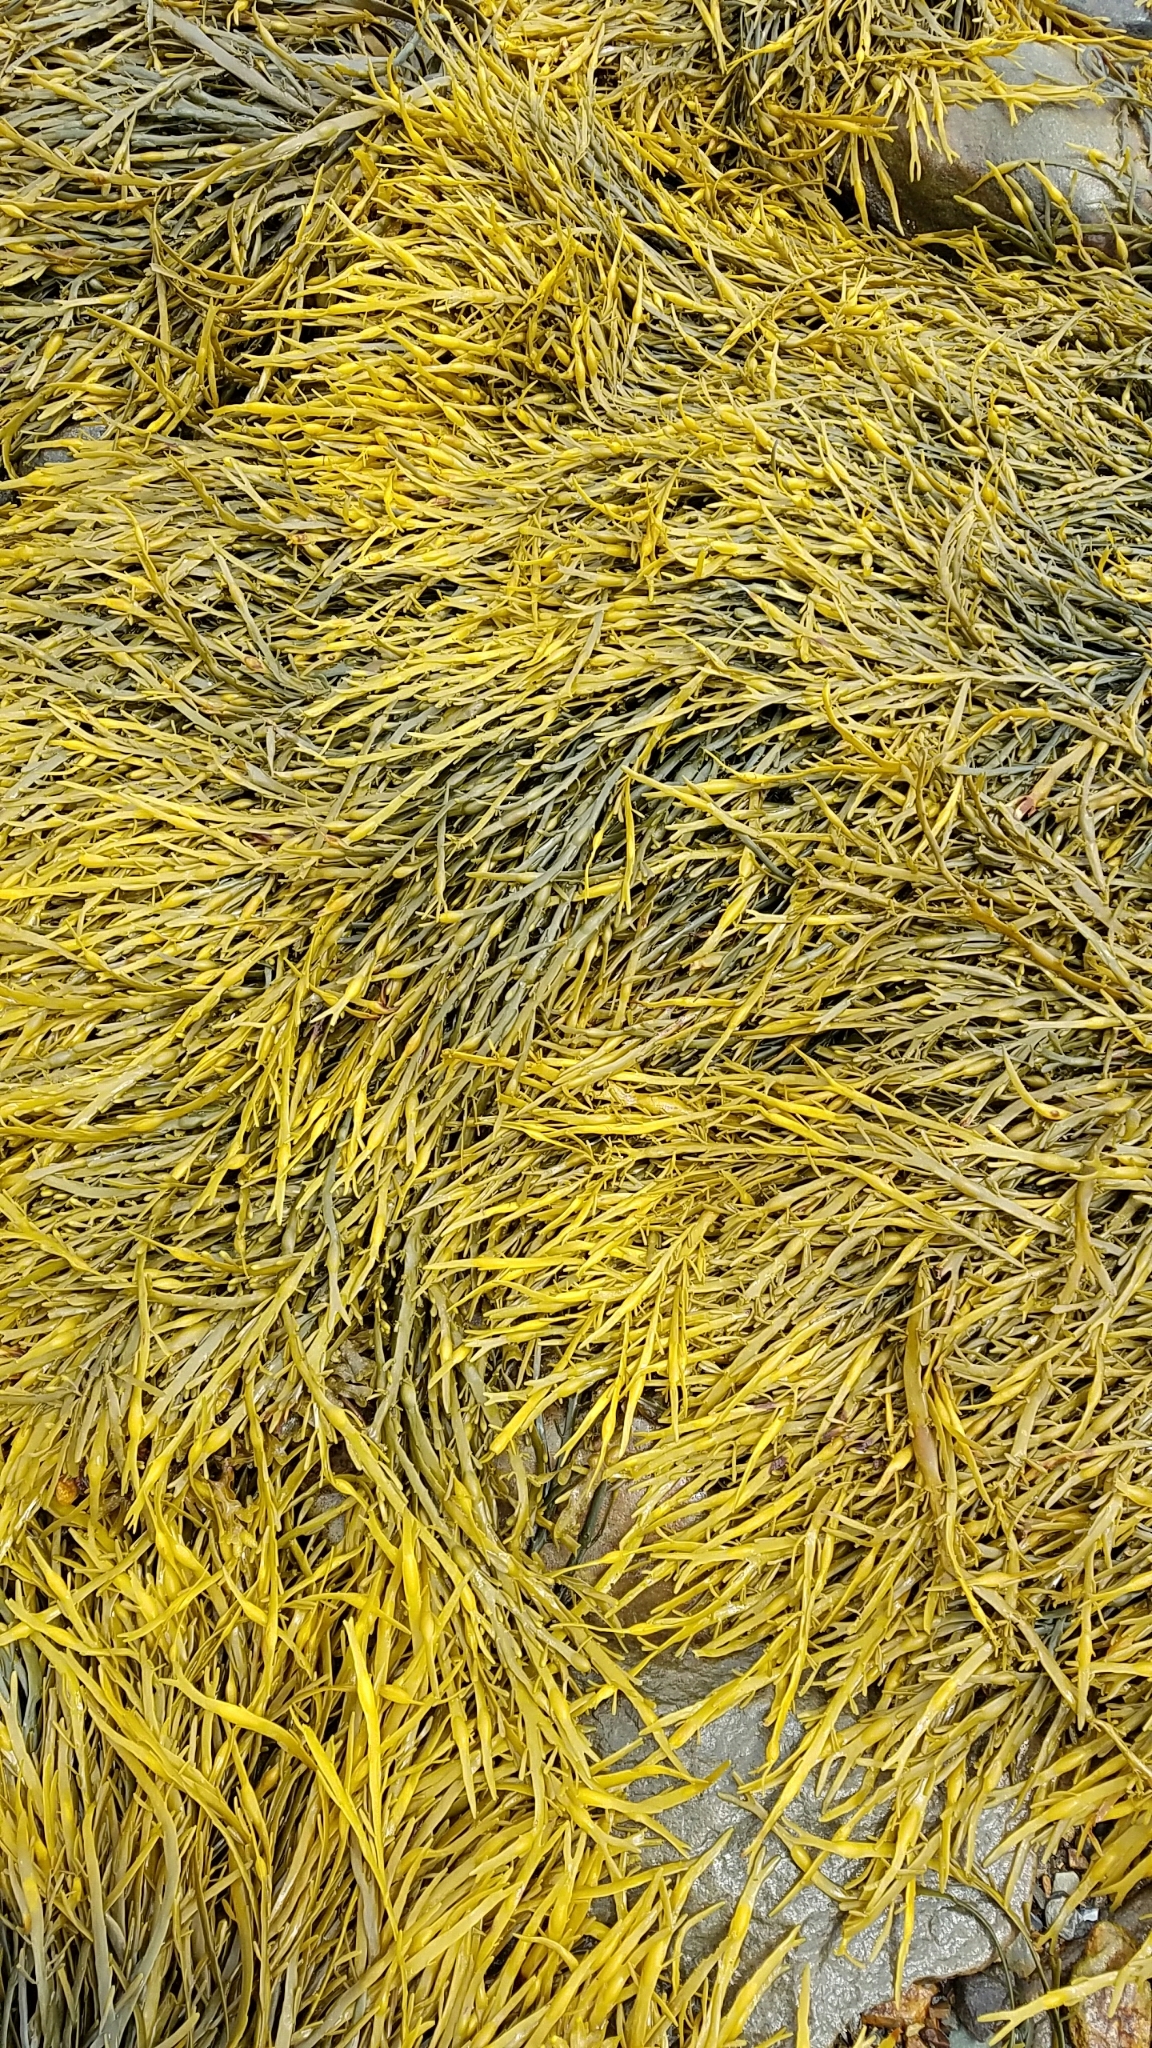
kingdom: Chromista
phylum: Ochrophyta
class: Phaeophyceae
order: Fucales
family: Fucaceae
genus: Ascophyllum
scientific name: Ascophyllum nodosum
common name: Knotted wrack
